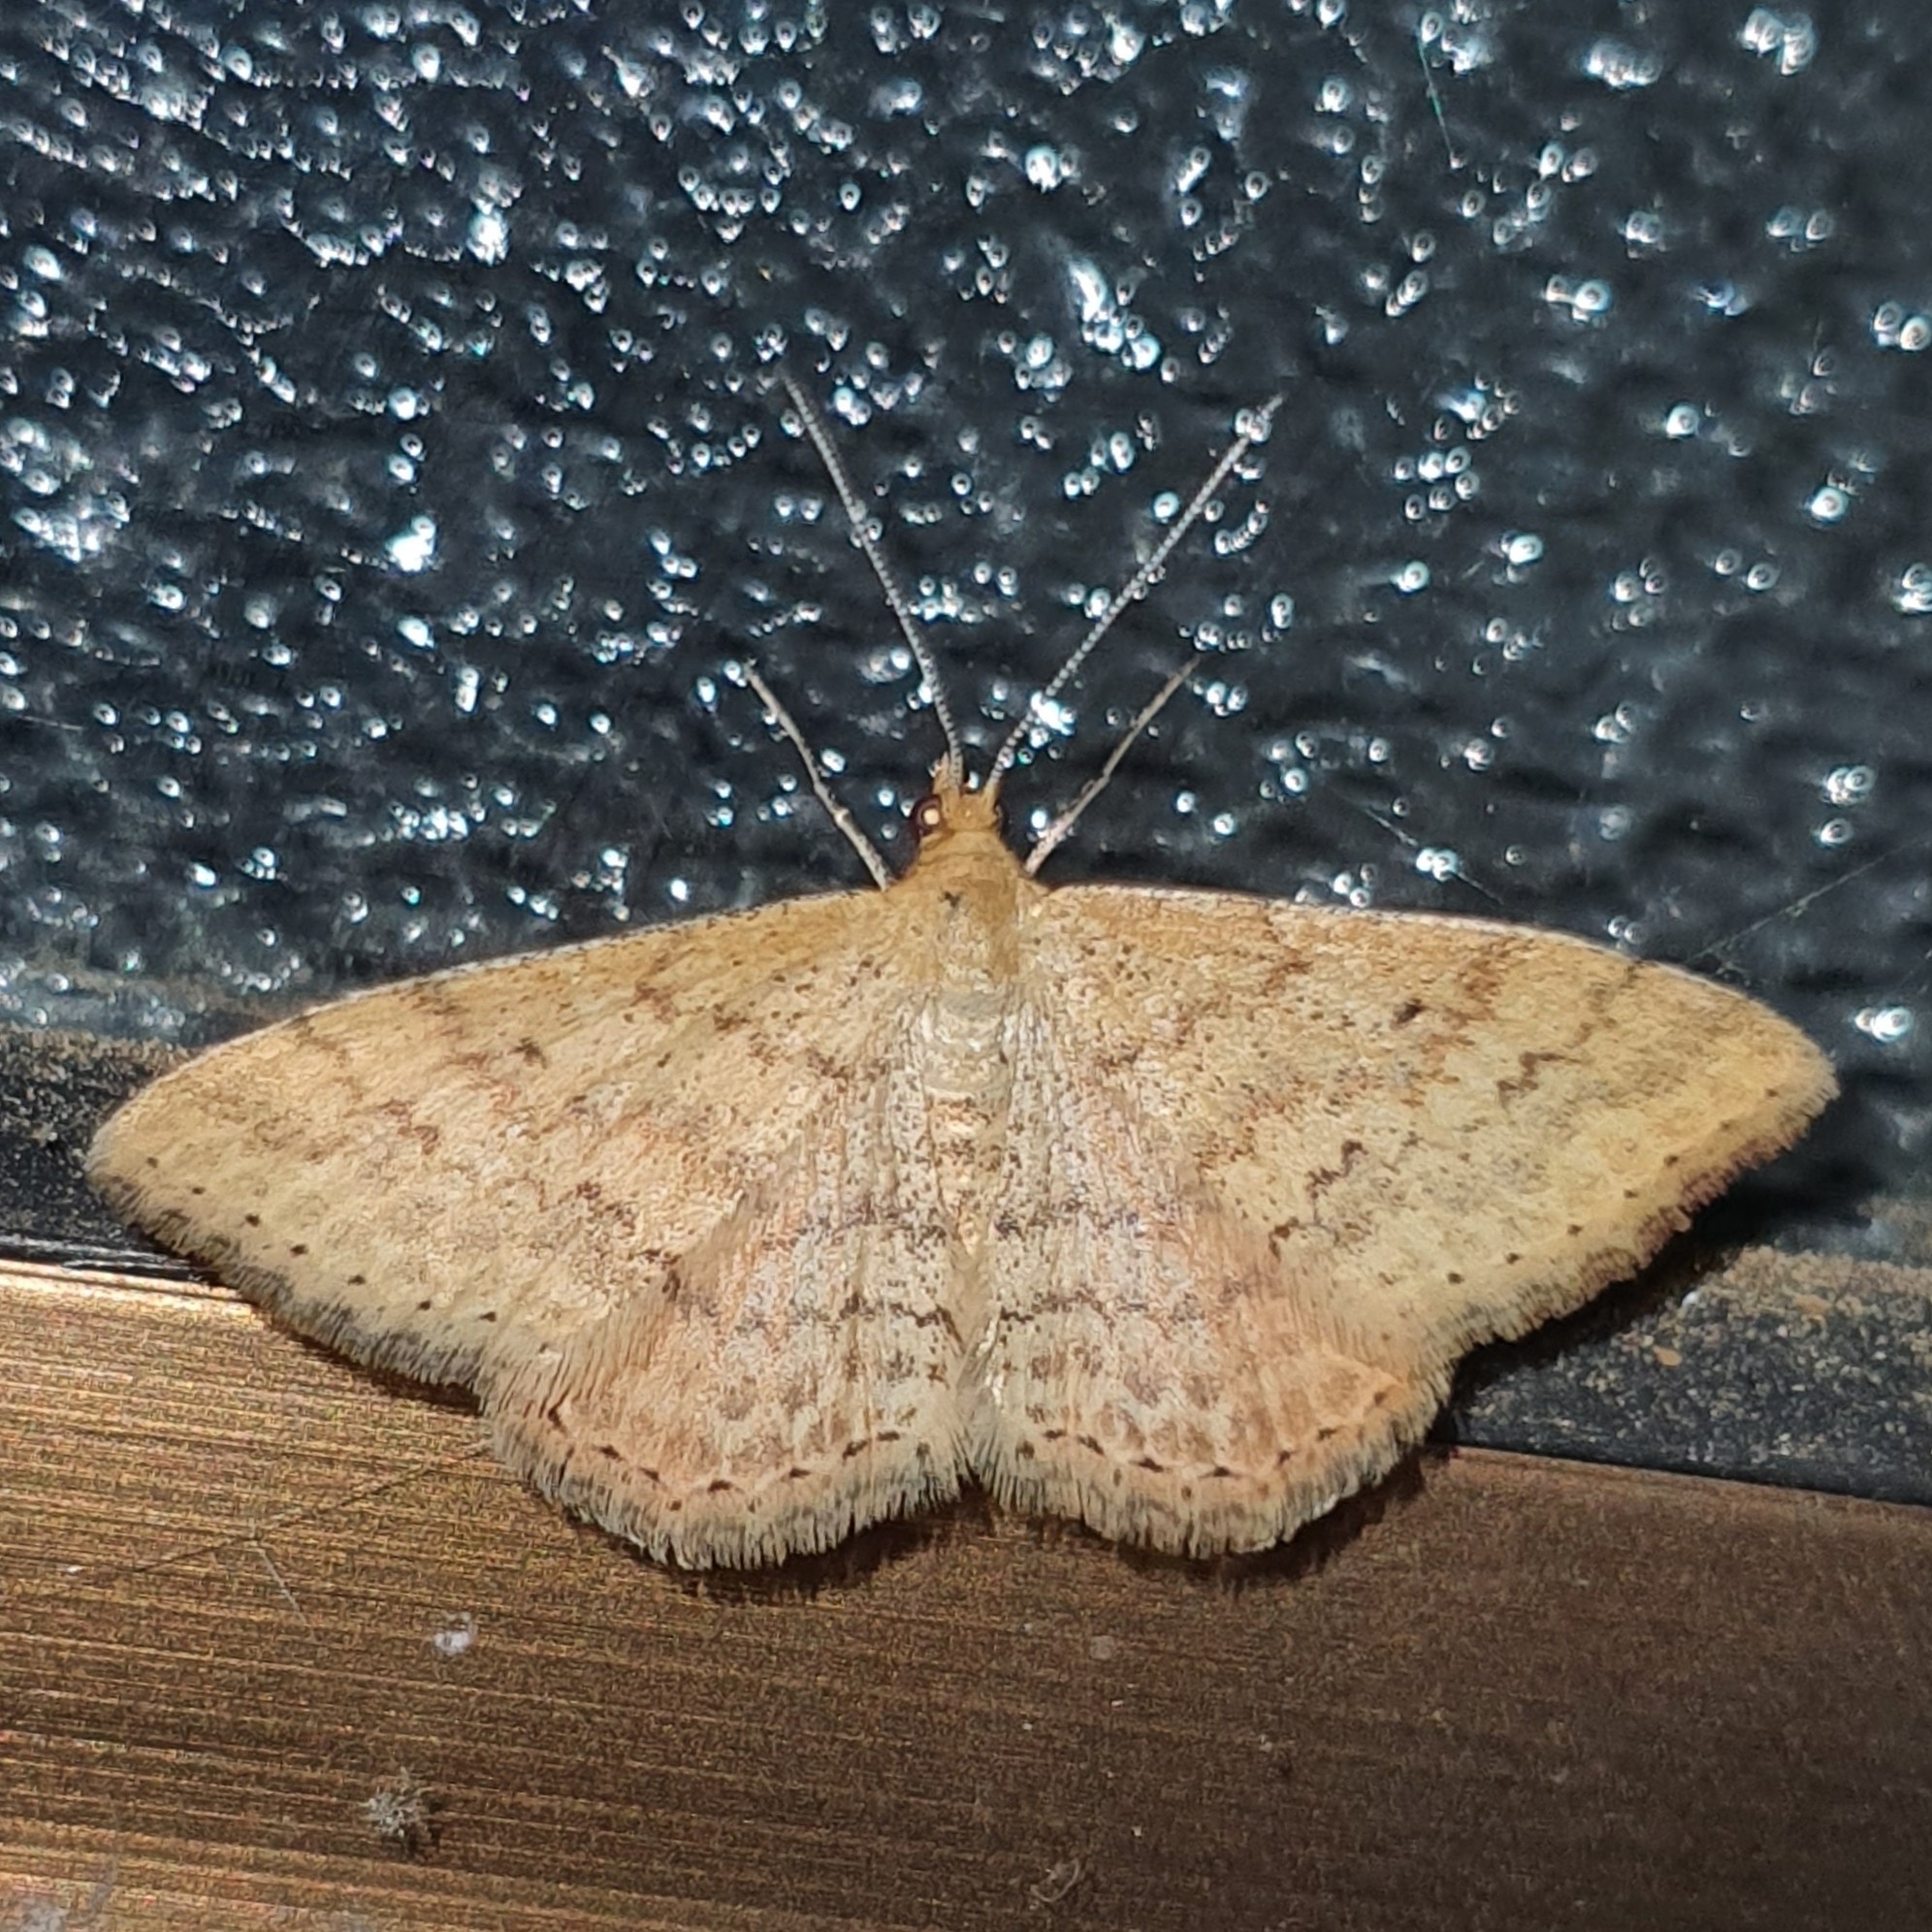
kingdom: Animalia
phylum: Arthropoda
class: Insecta
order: Lepidoptera
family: Geometridae
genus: Scopula
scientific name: Scopula rubraria
